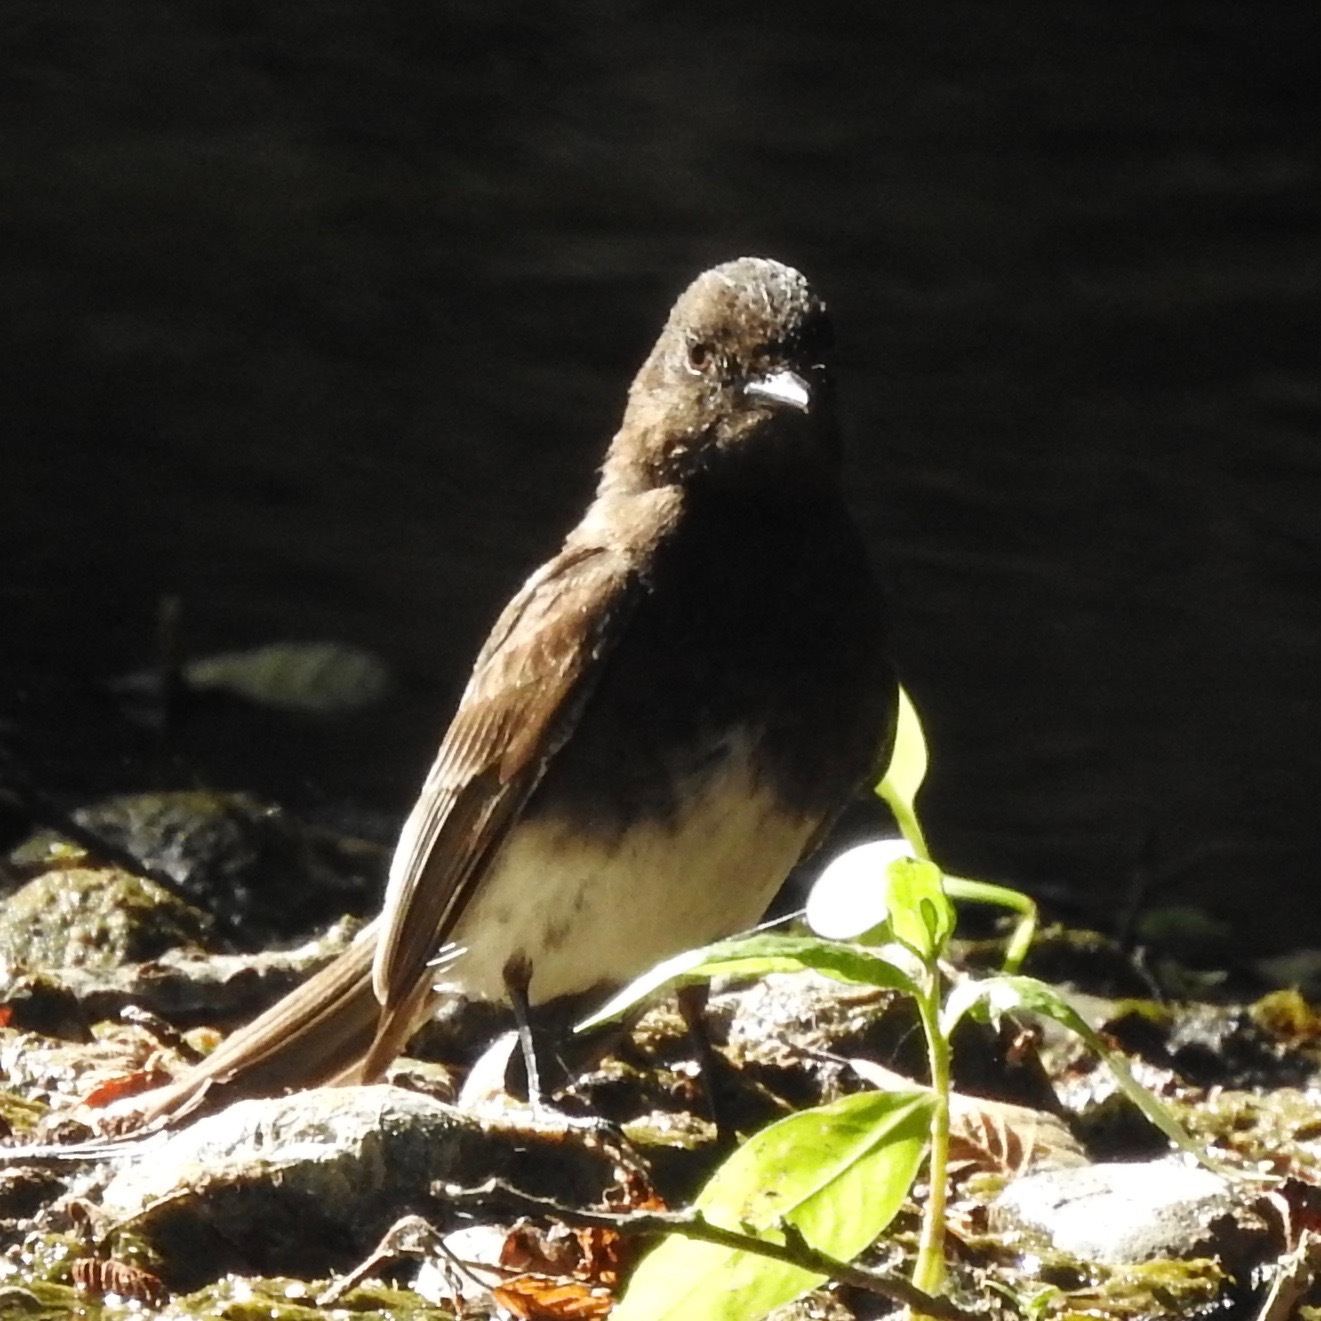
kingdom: Animalia
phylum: Chordata
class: Aves
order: Passeriformes
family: Tyrannidae
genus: Sayornis
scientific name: Sayornis nigricans
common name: Black phoebe
